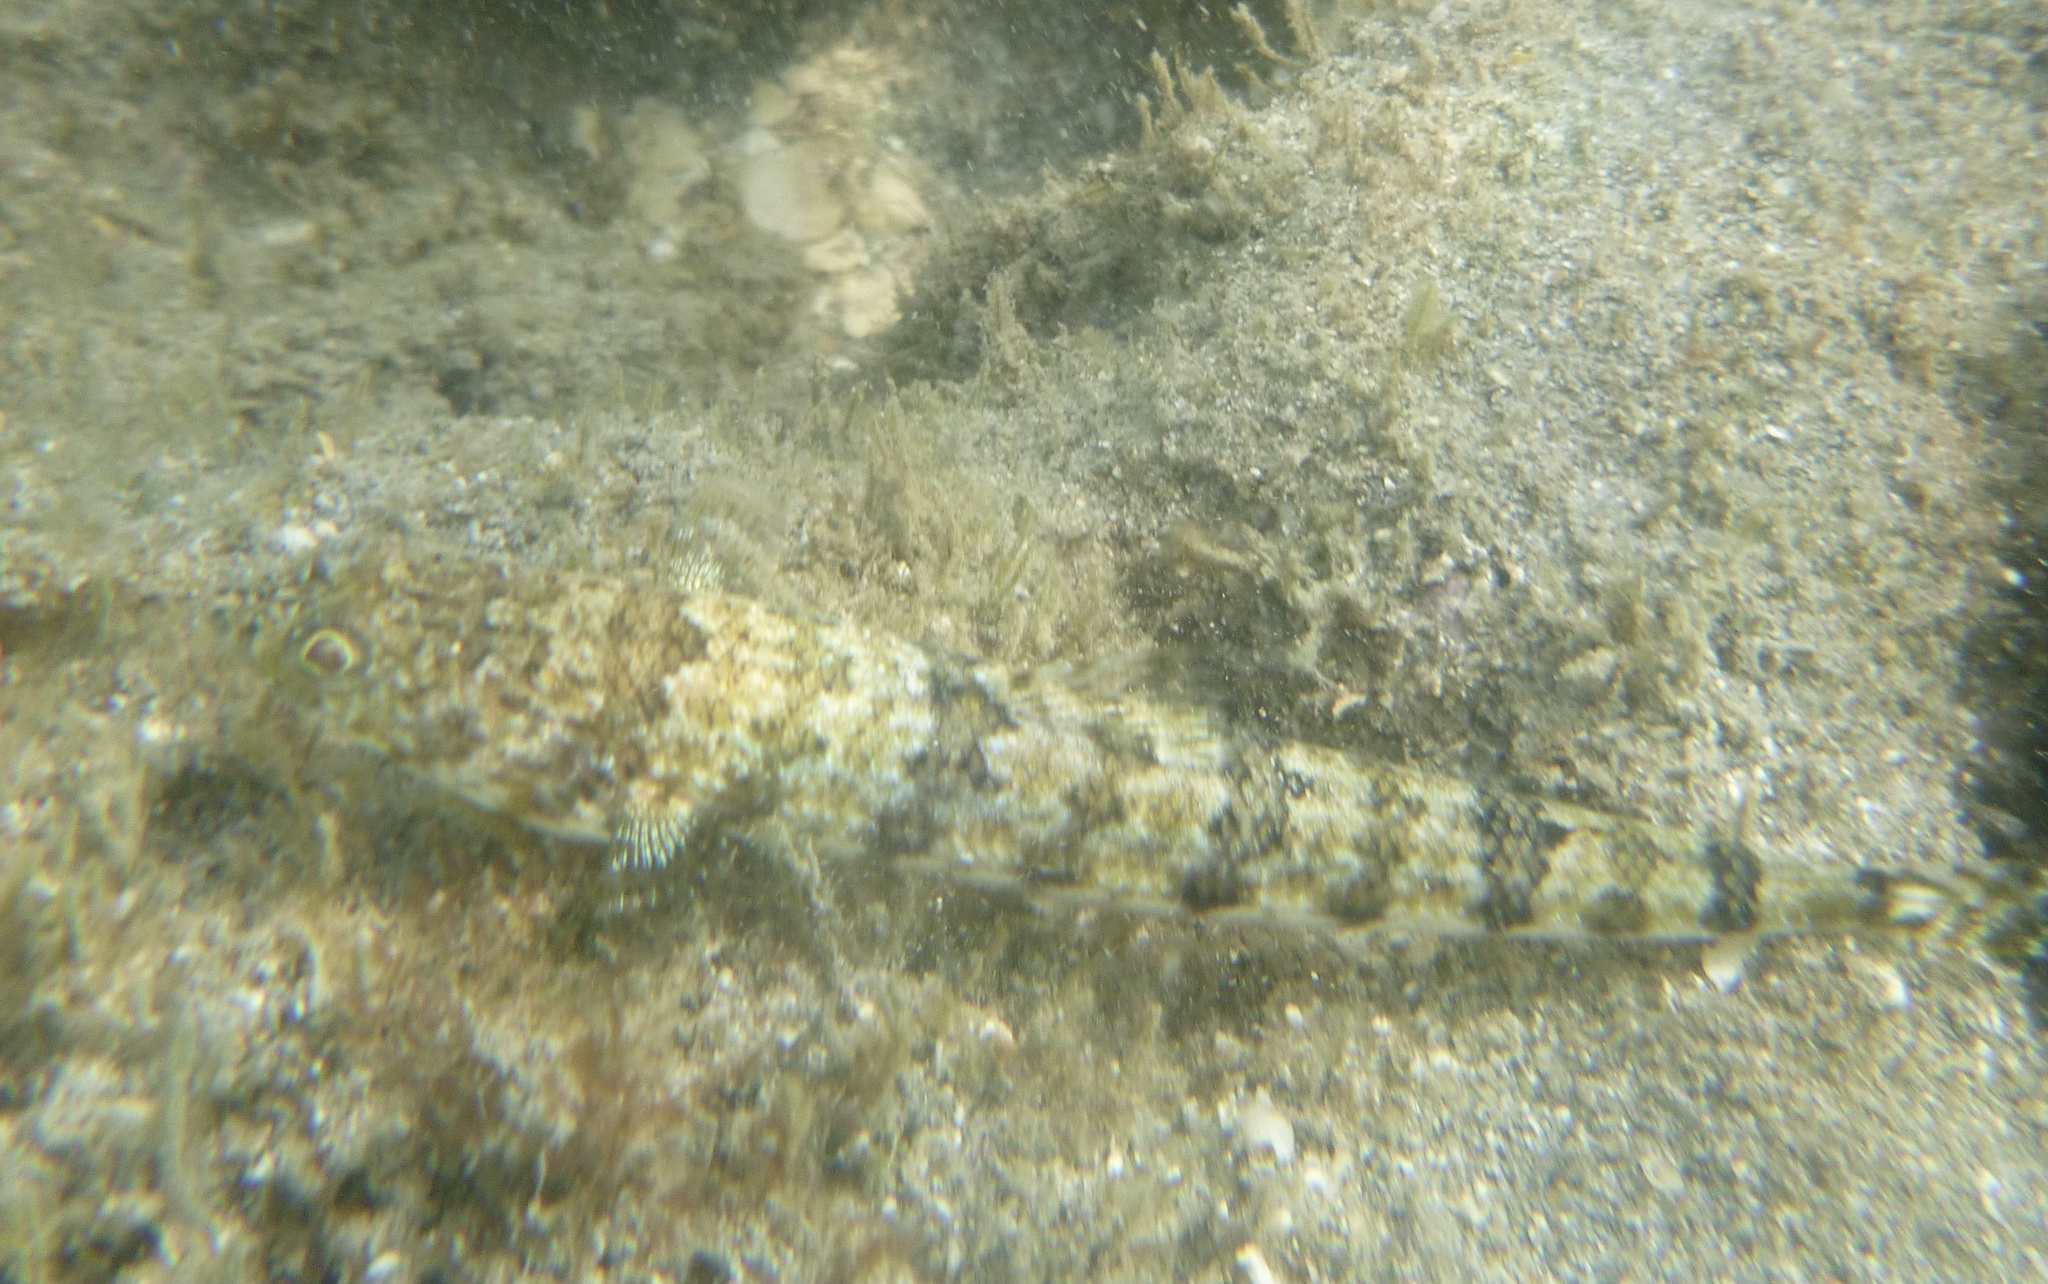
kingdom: Animalia
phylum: Chordata
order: Aulopiformes
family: Synodontidae
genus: Synodus
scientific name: Synodus dermatogenys
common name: Banded lizardfish
